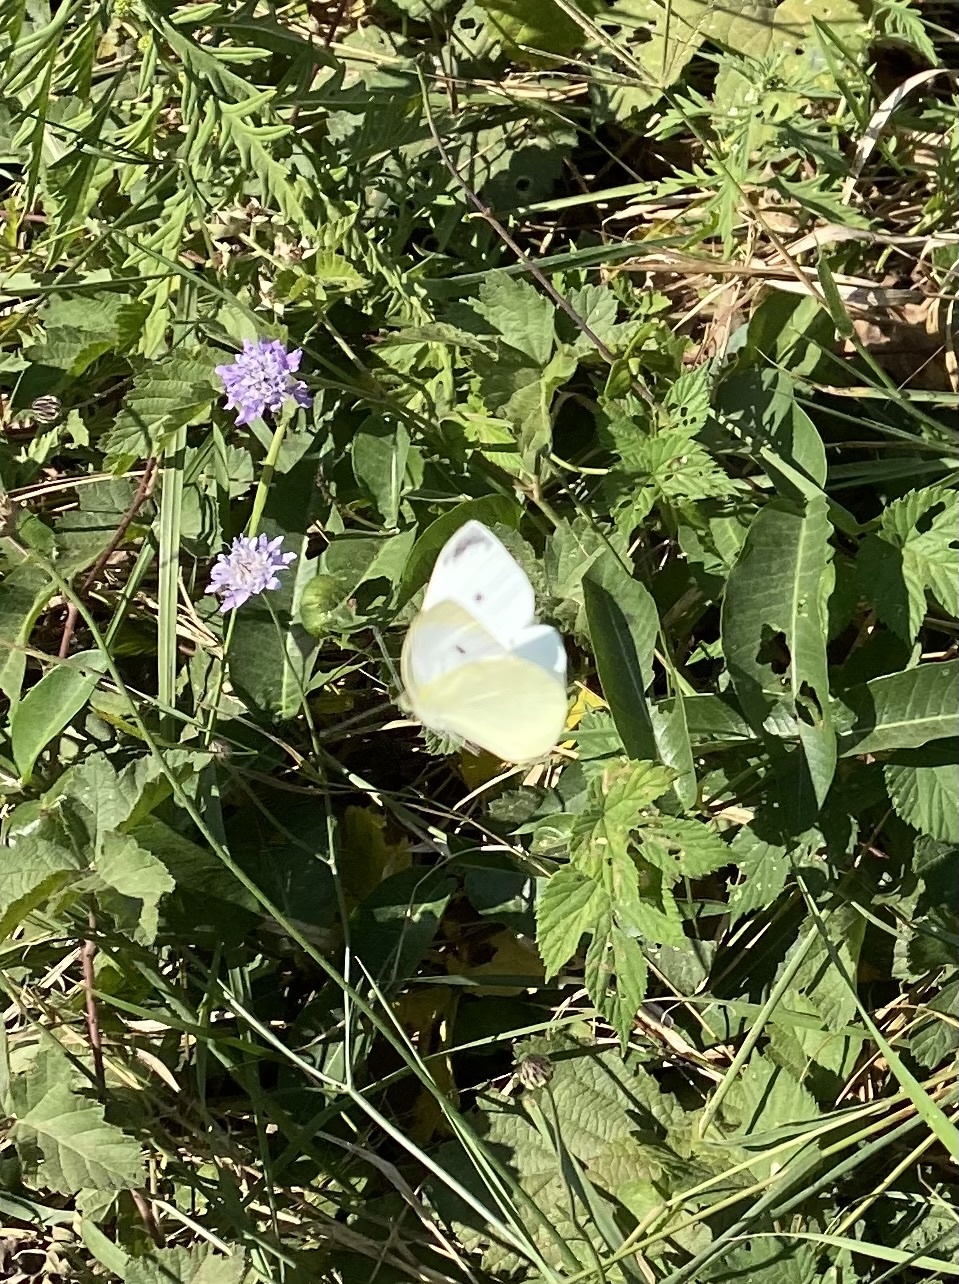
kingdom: Animalia
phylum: Arthropoda
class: Insecta
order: Lepidoptera
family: Pieridae
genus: Pieris
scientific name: Pieris rapae
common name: Small white
